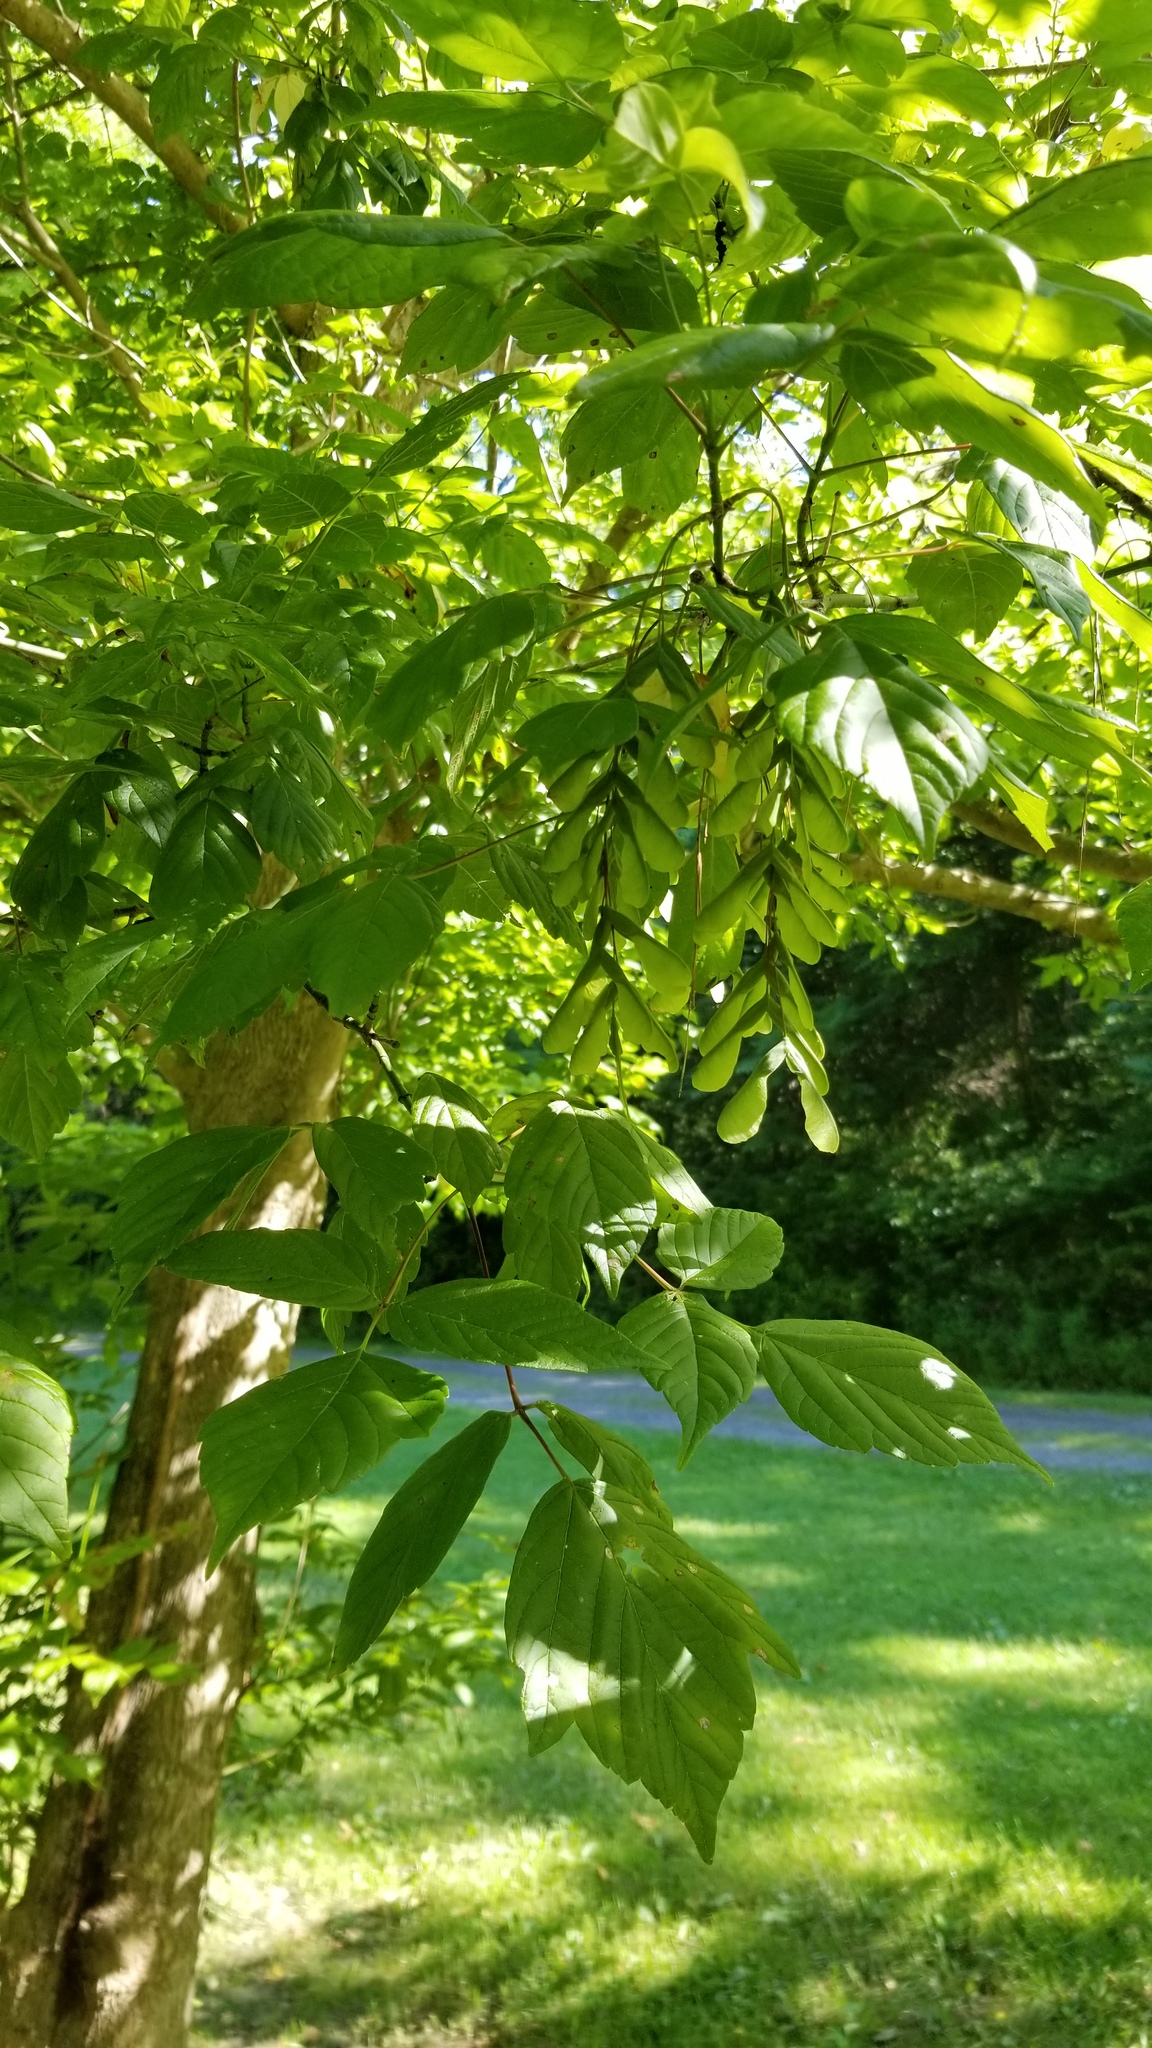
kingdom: Plantae
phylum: Tracheophyta
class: Magnoliopsida
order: Sapindales
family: Sapindaceae
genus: Acer
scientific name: Acer negundo
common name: Ashleaf maple
